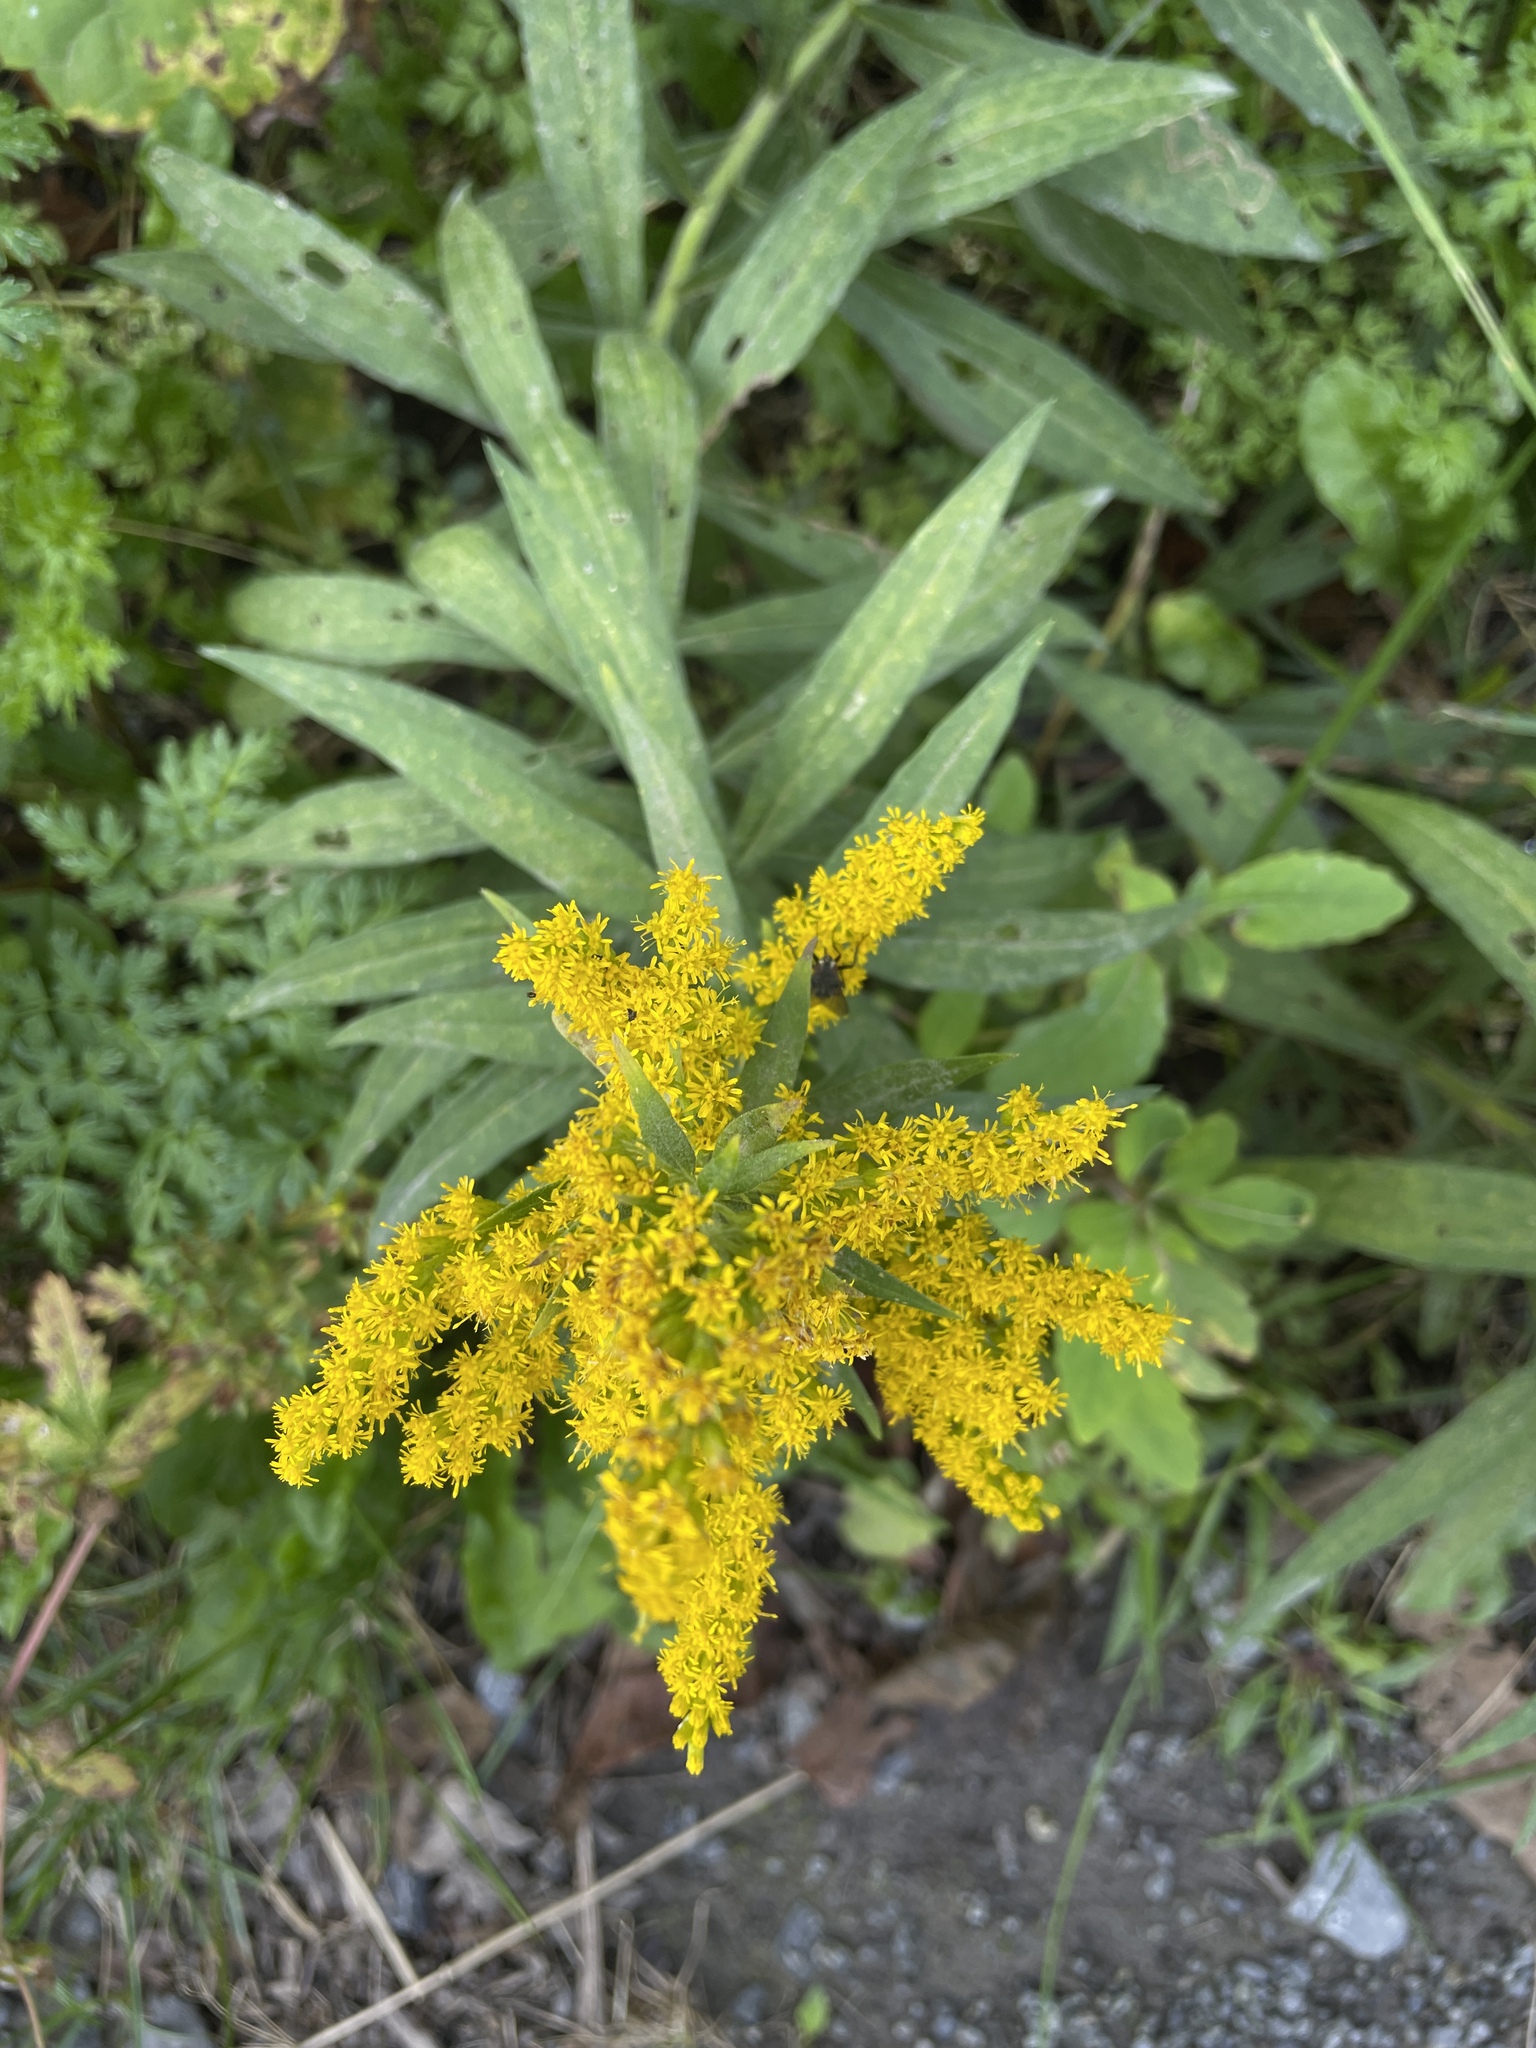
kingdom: Plantae
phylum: Tracheophyta
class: Magnoliopsida
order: Asterales
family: Asteraceae
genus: Solidago
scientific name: Solidago altissima
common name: Late goldenrod
